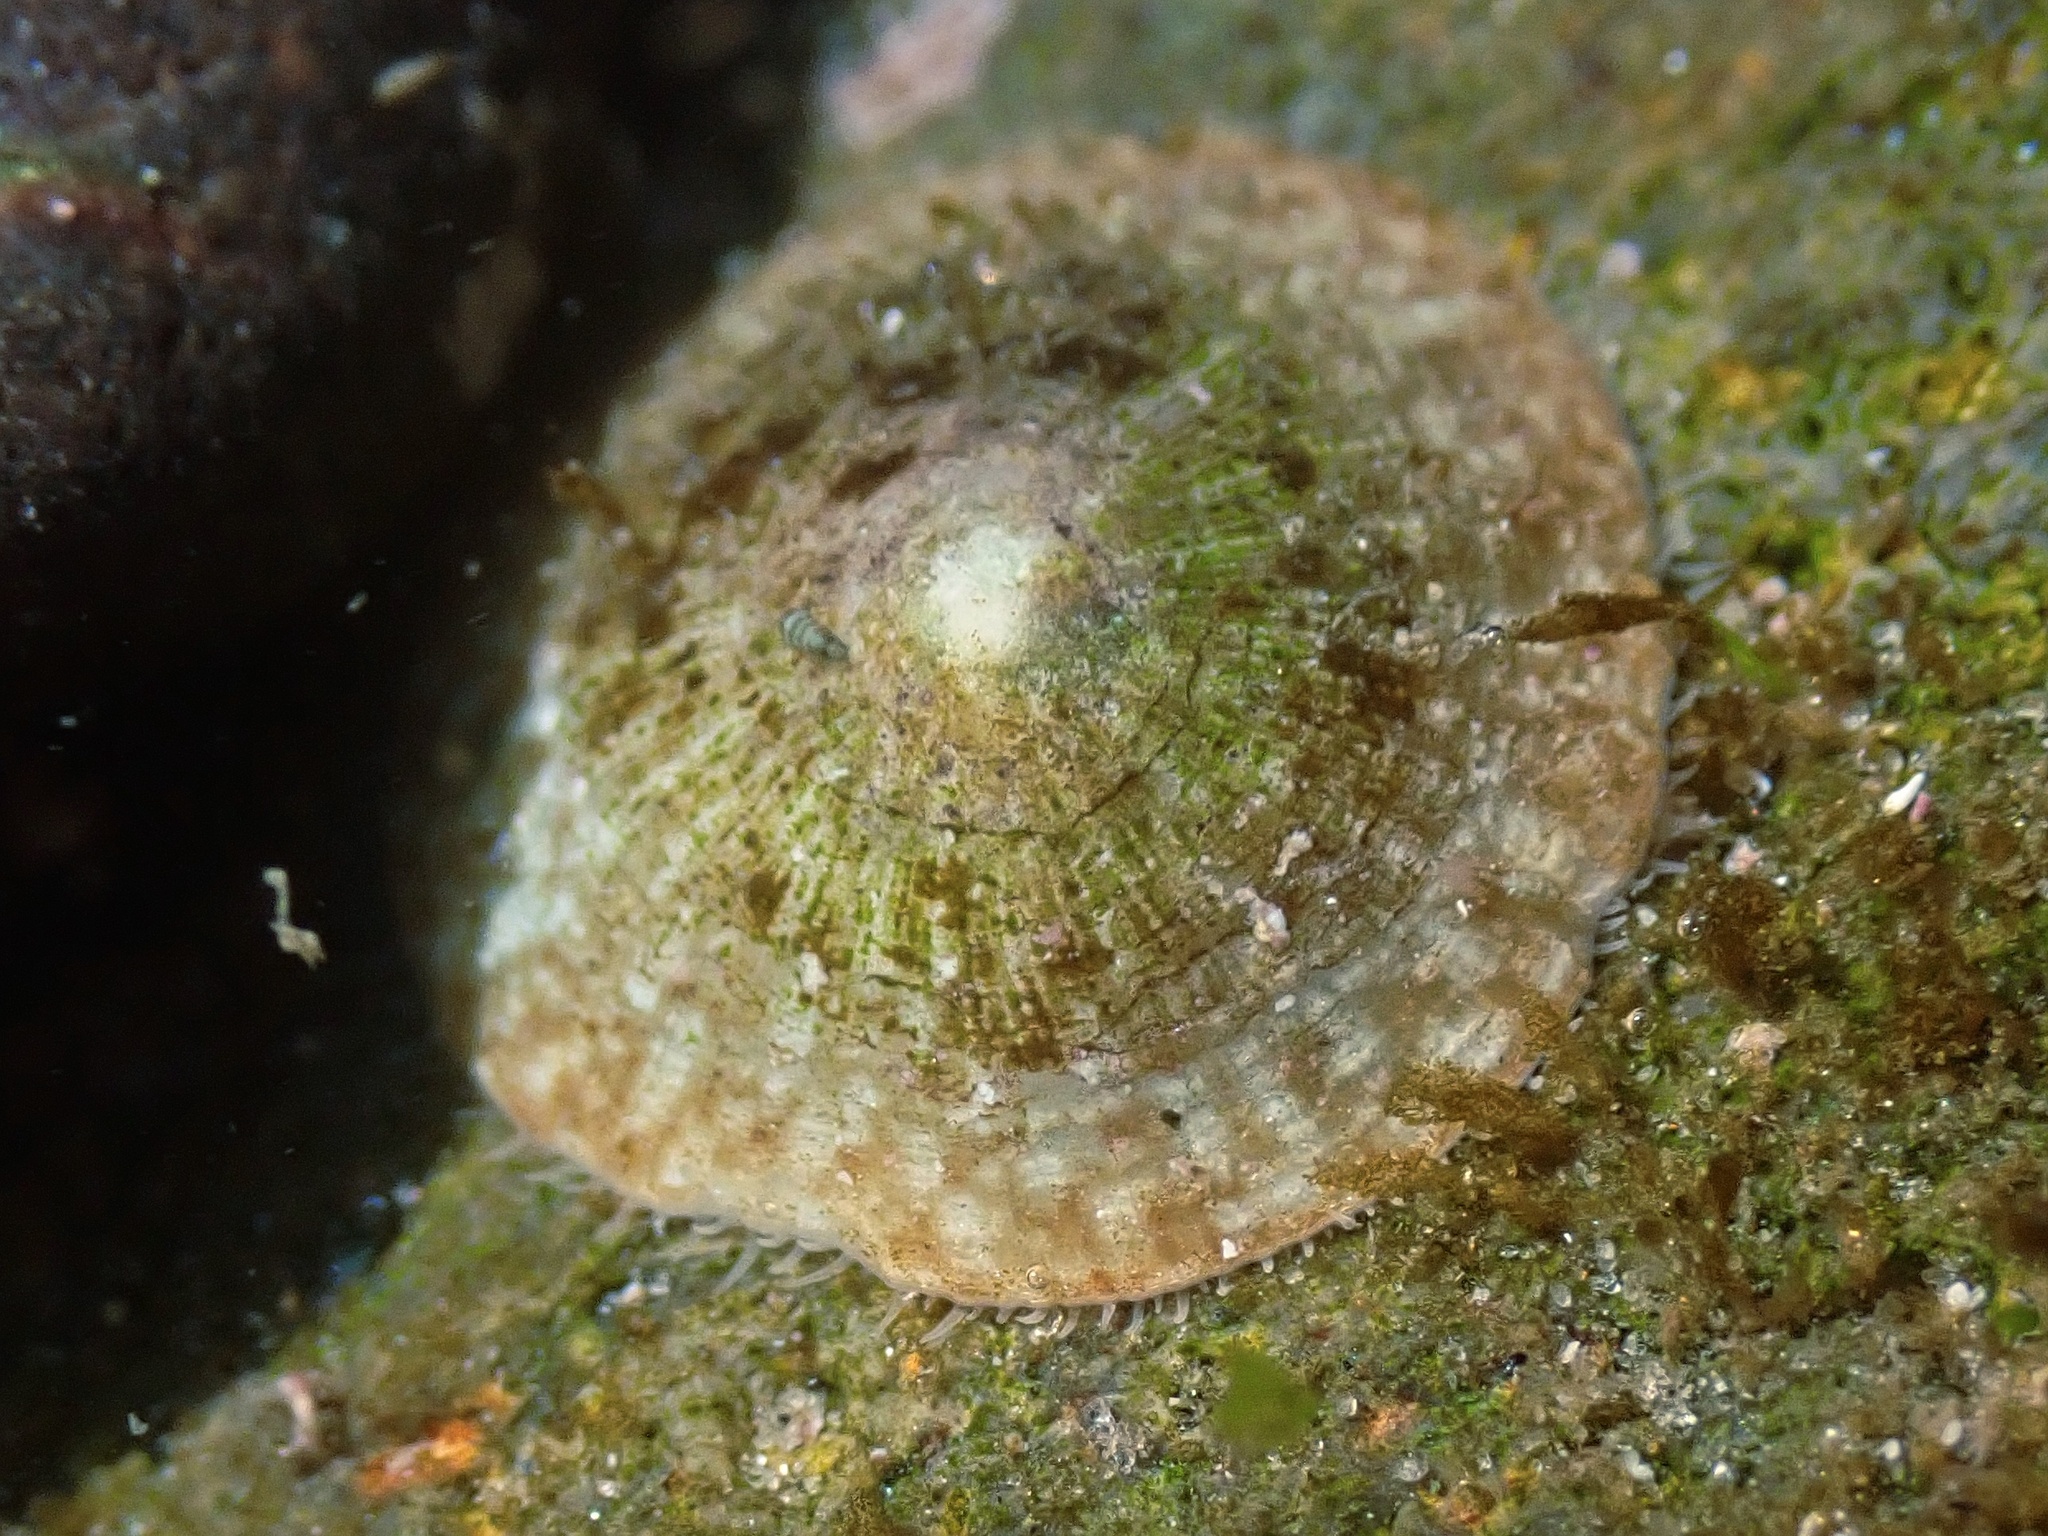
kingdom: Animalia
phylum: Mollusca
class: Gastropoda
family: Lottiidae
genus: Lottia
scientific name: Lottia limatula
